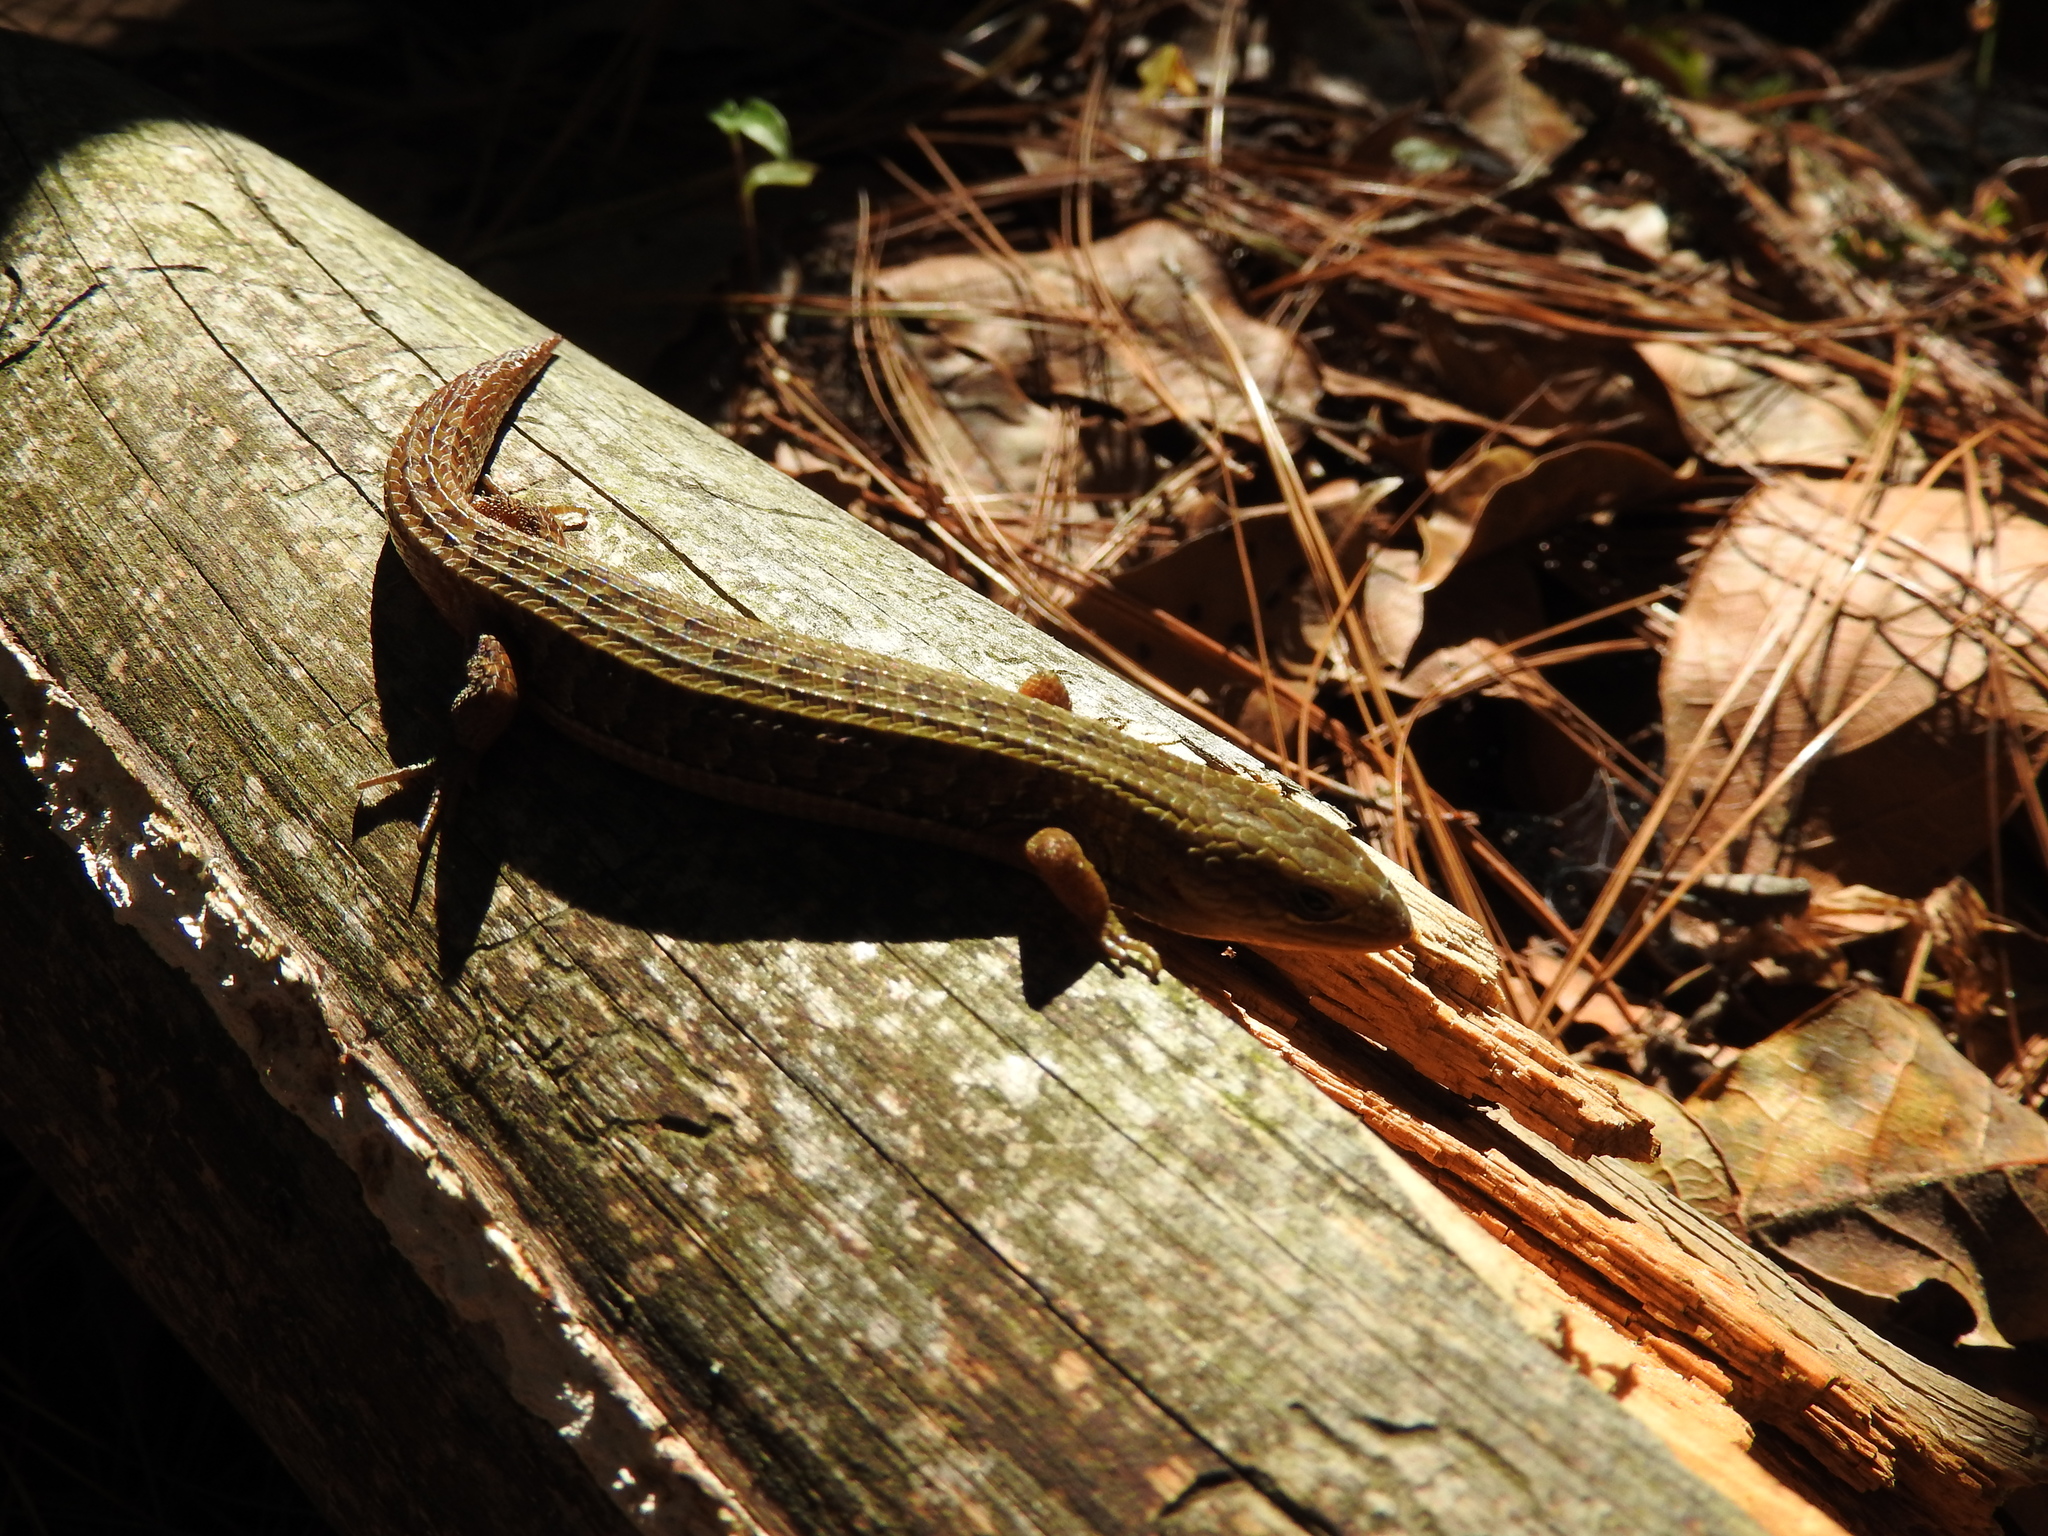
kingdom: Animalia
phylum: Chordata
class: Squamata
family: Anguidae
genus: Barisia
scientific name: Barisia imbricata
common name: Imbricate alligator lizard
